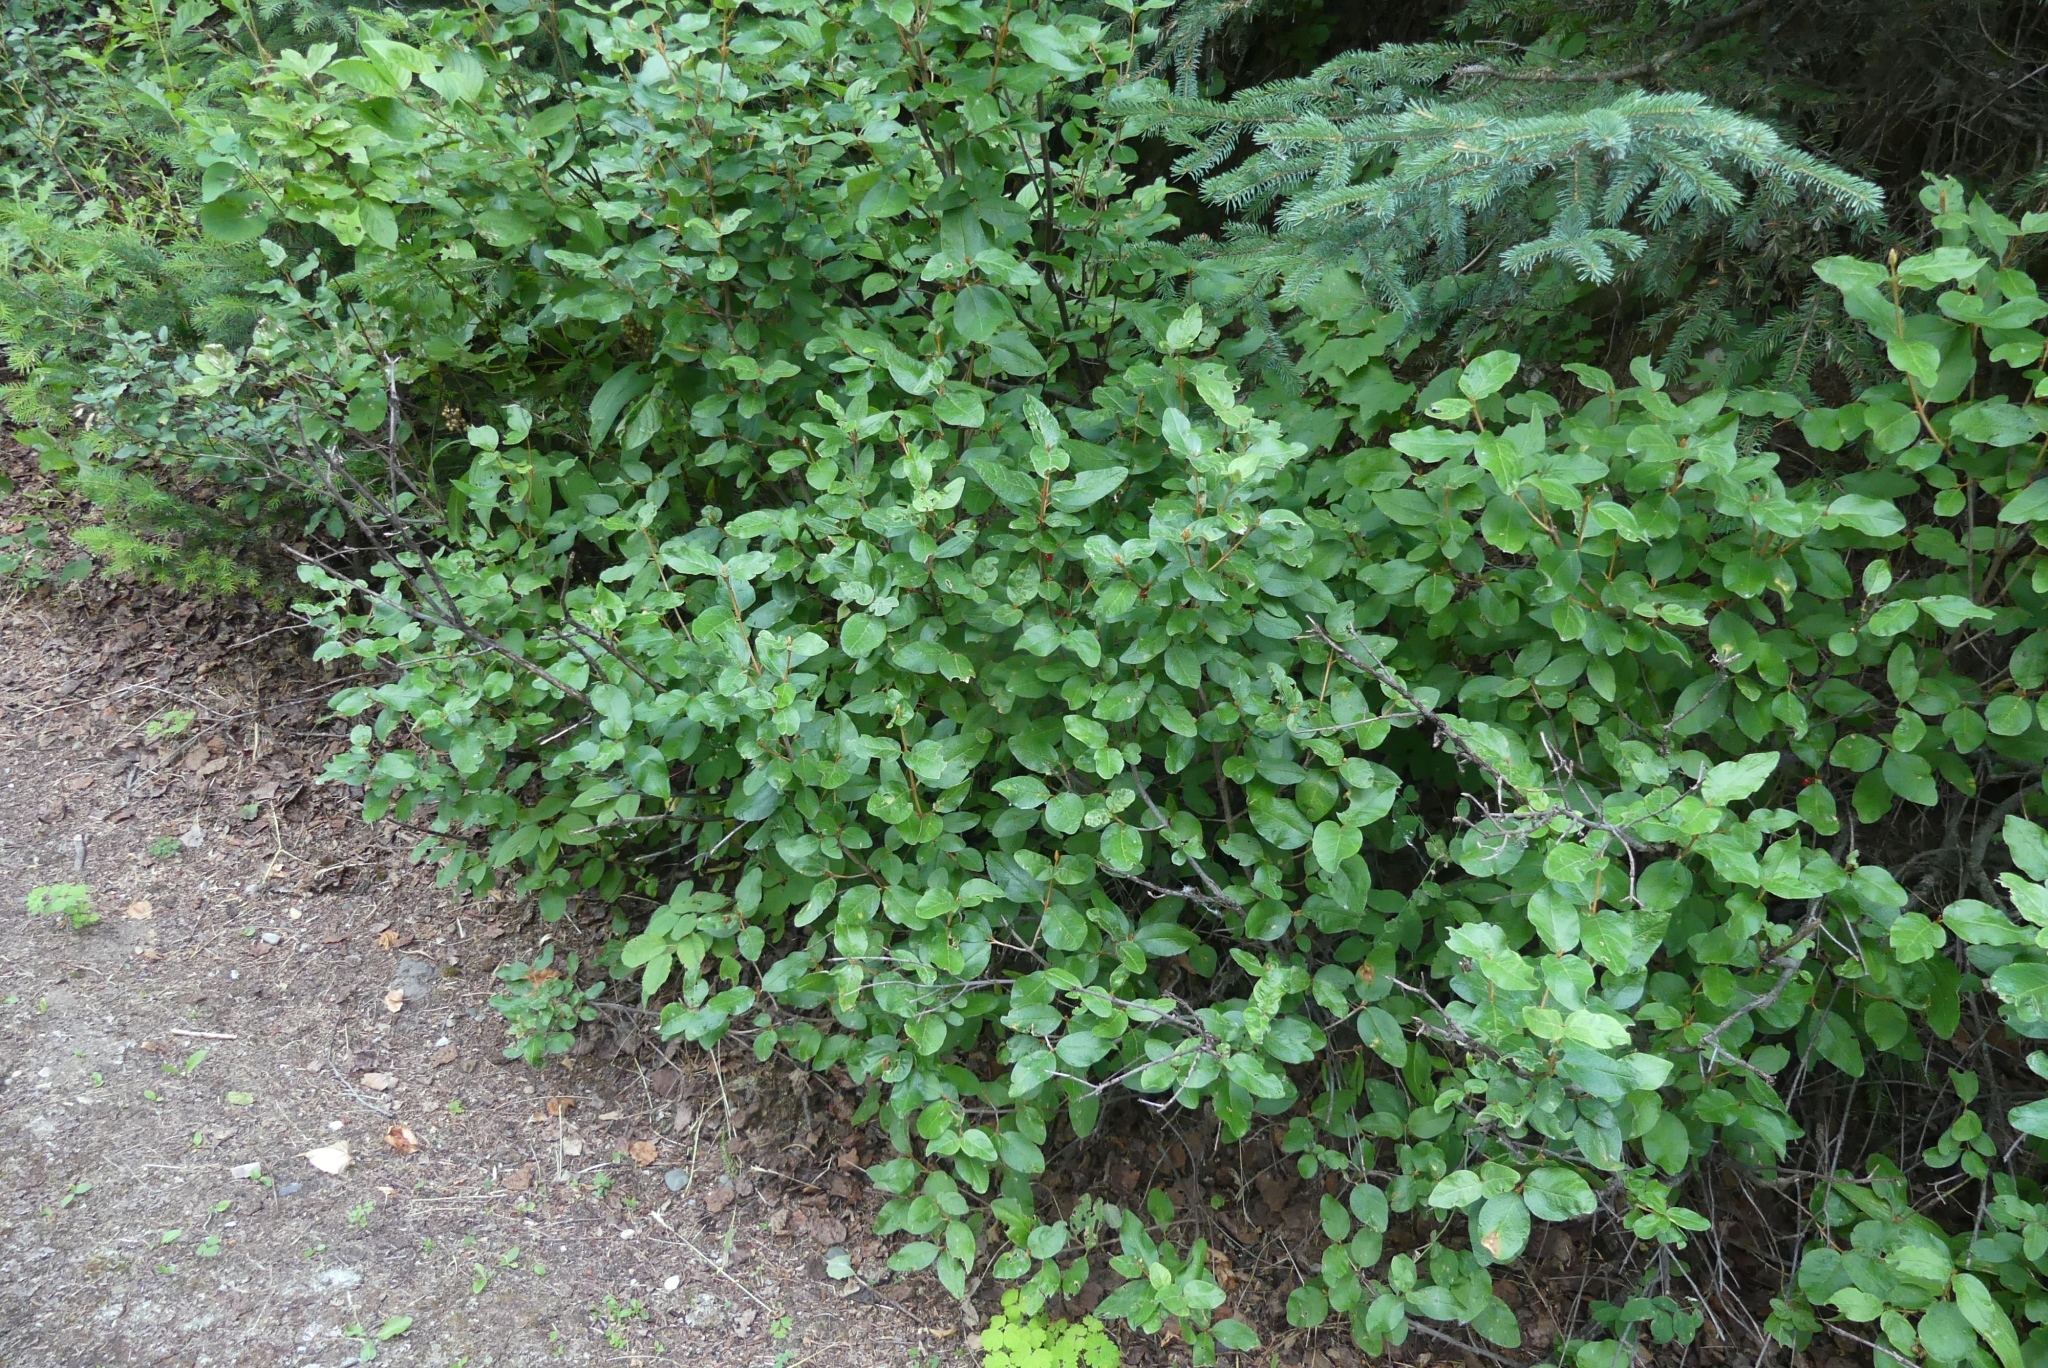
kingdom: Plantae
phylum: Tracheophyta
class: Magnoliopsida
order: Rosales
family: Elaeagnaceae
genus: Shepherdia
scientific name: Shepherdia canadensis
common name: Soapberry
